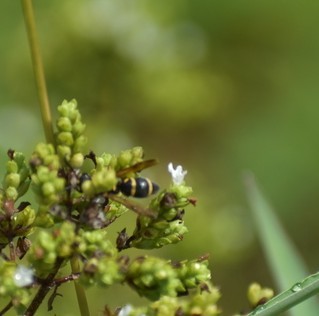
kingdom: Animalia
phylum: Arthropoda
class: Insecta
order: Hymenoptera
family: Eumenidae
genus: Parancistrocerus
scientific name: Parancistrocerus fulvipes
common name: Potter wasp
